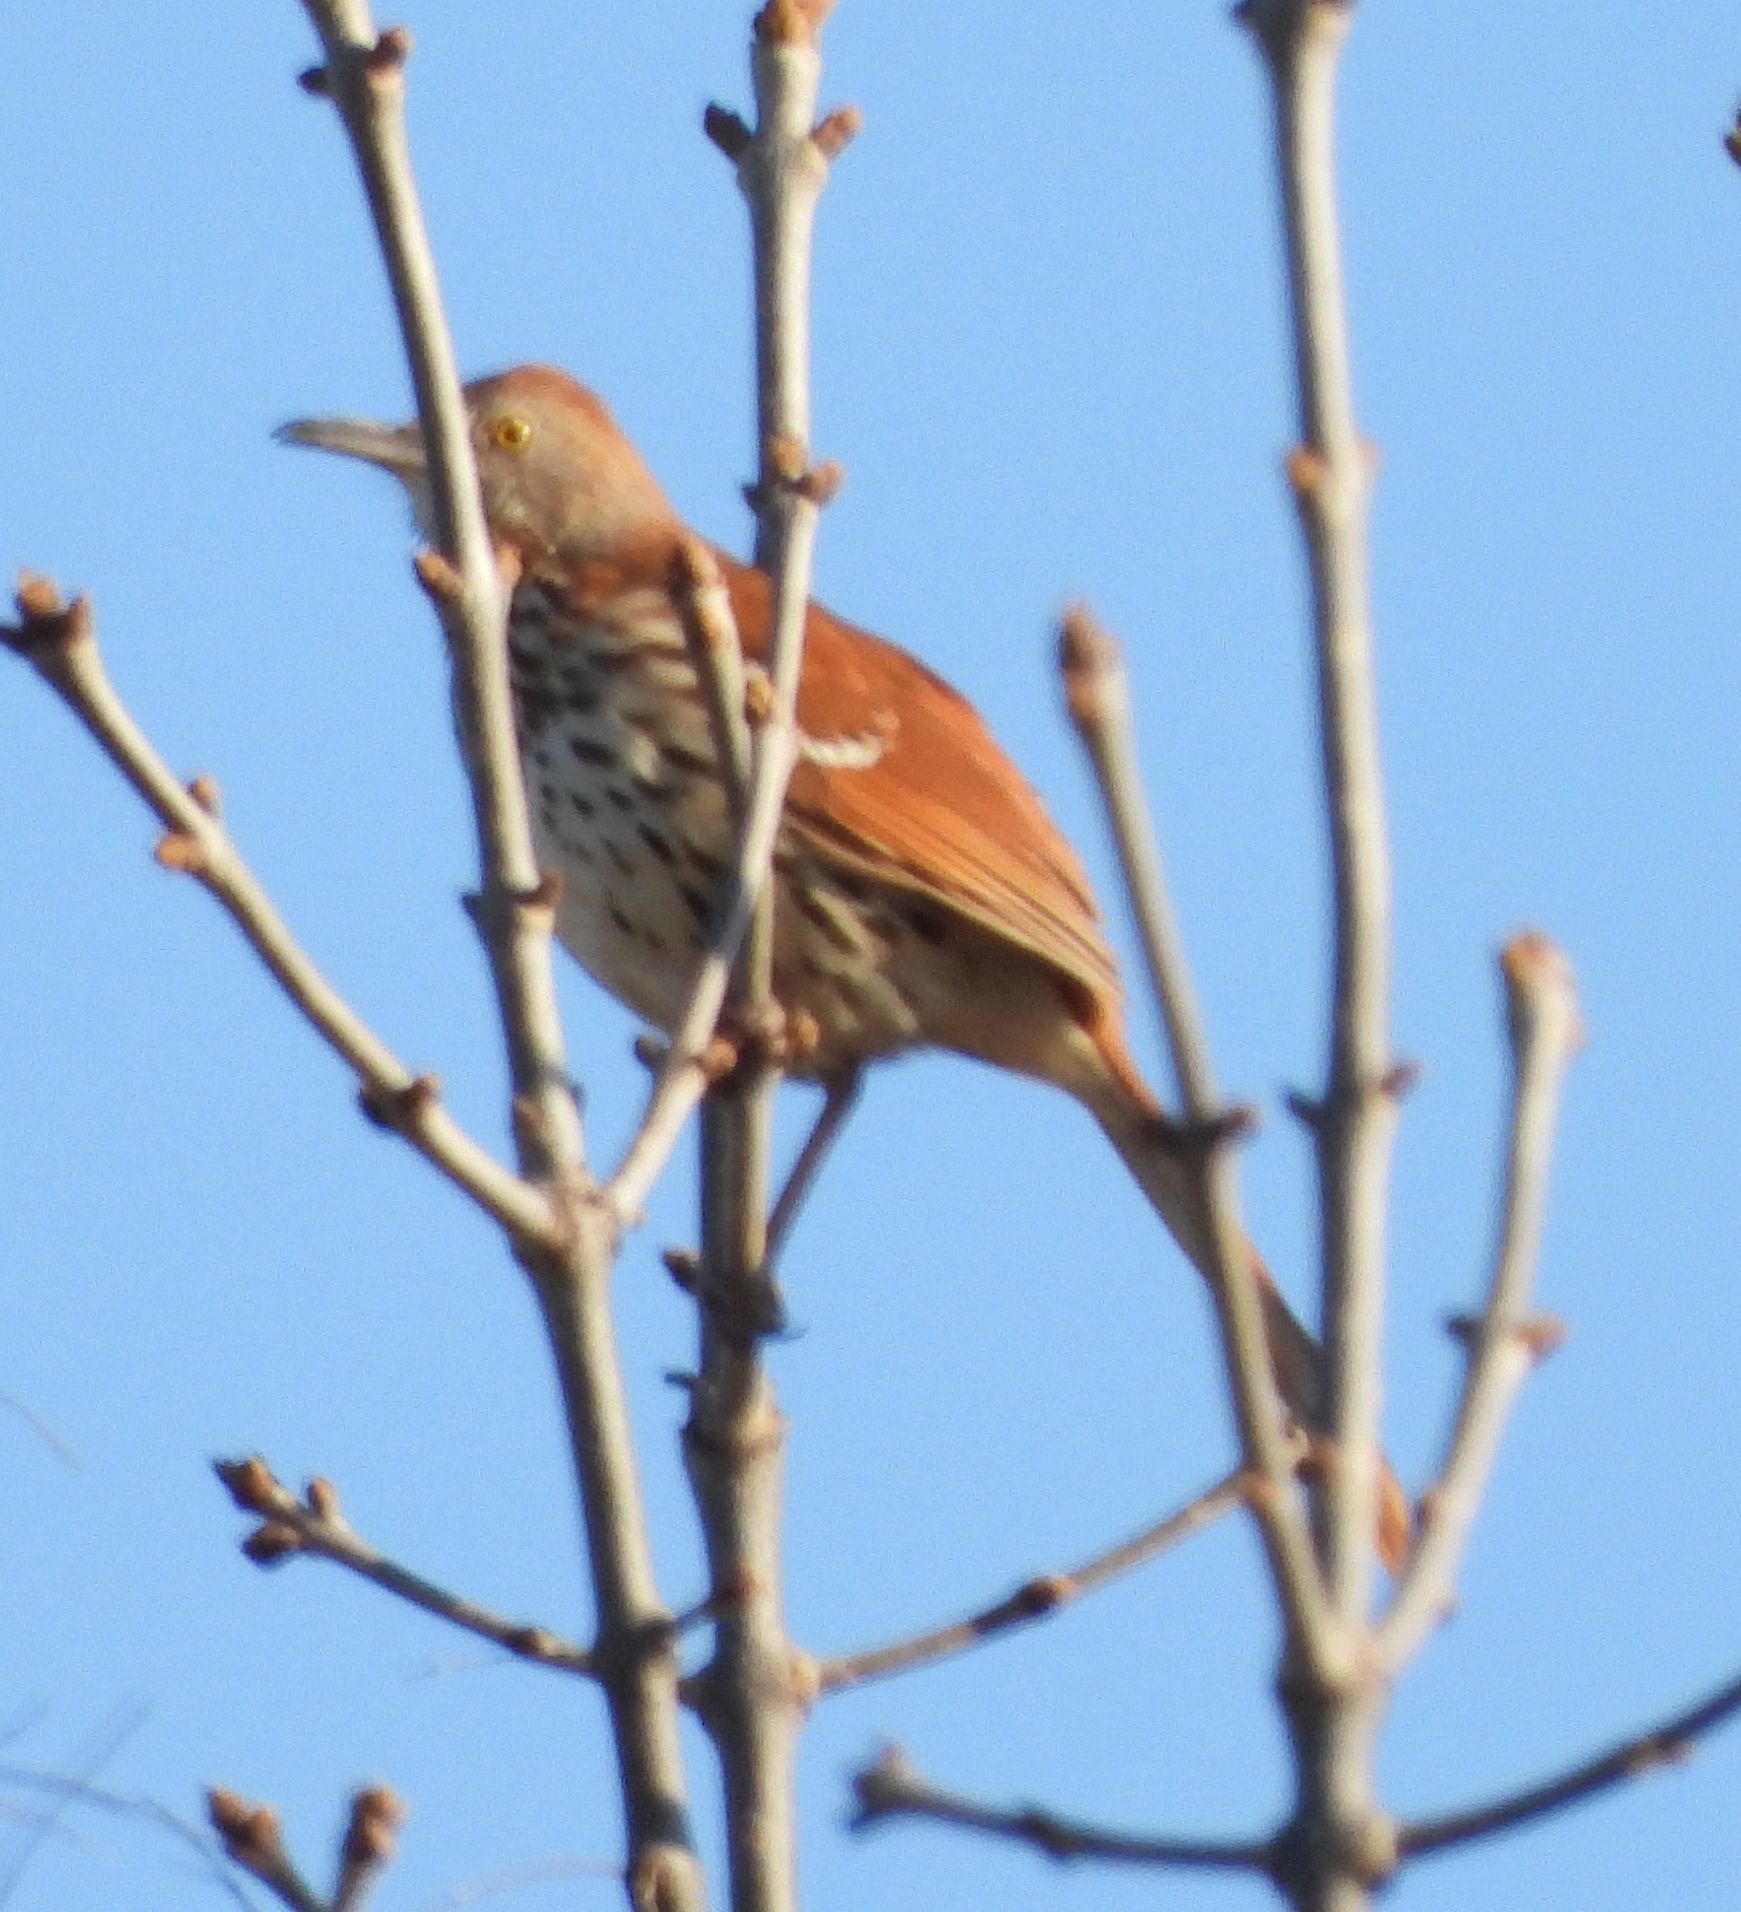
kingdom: Animalia
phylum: Chordata
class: Aves
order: Passeriformes
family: Mimidae
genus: Toxostoma
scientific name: Toxostoma rufum
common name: Brown thrasher
